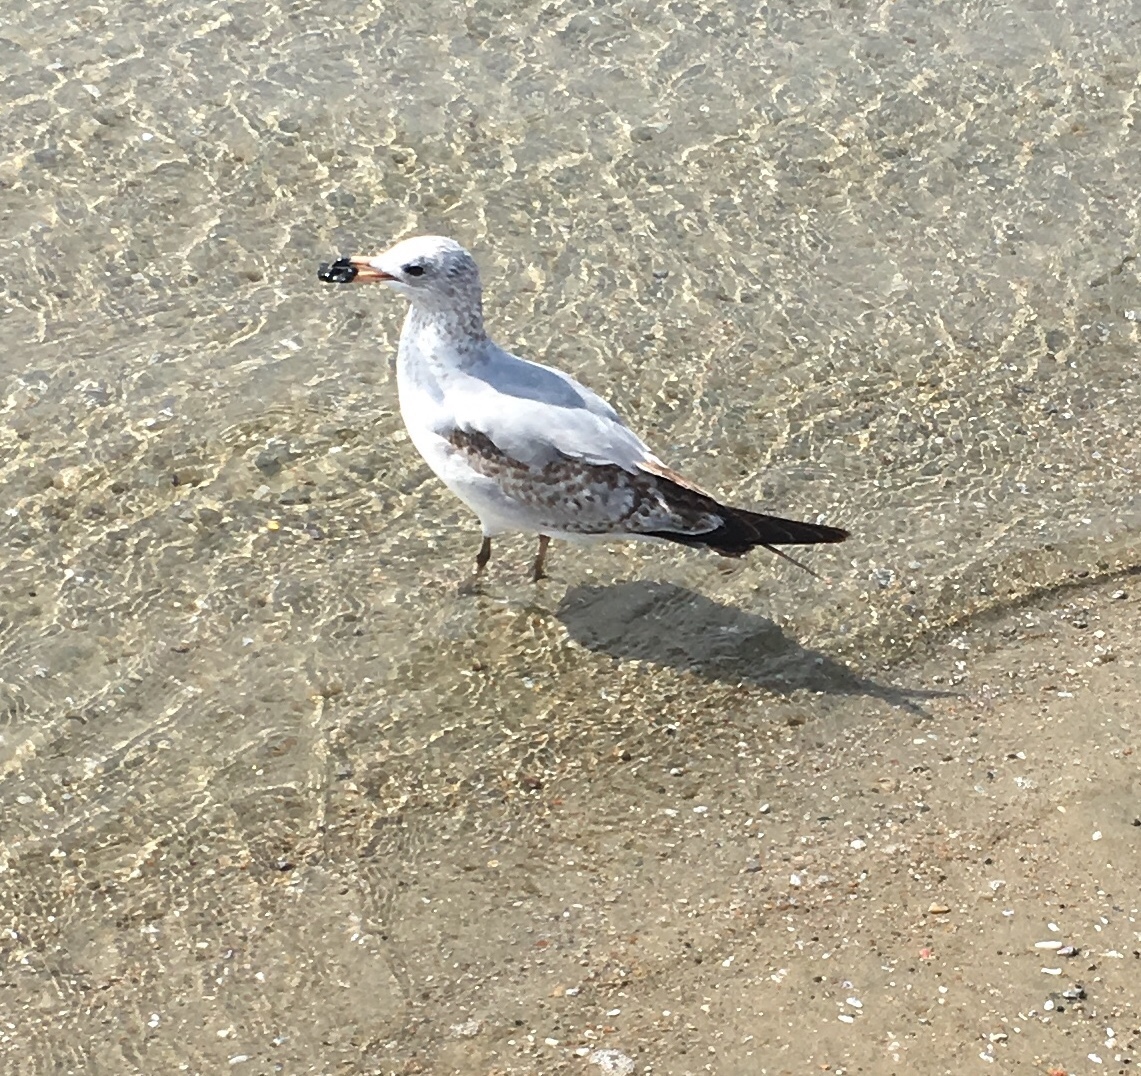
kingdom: Animalia
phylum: Chordata
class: Aves
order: Charadriiformes
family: Laridae
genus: Larus
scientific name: Larus delawarensis
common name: Ring-billed gull
